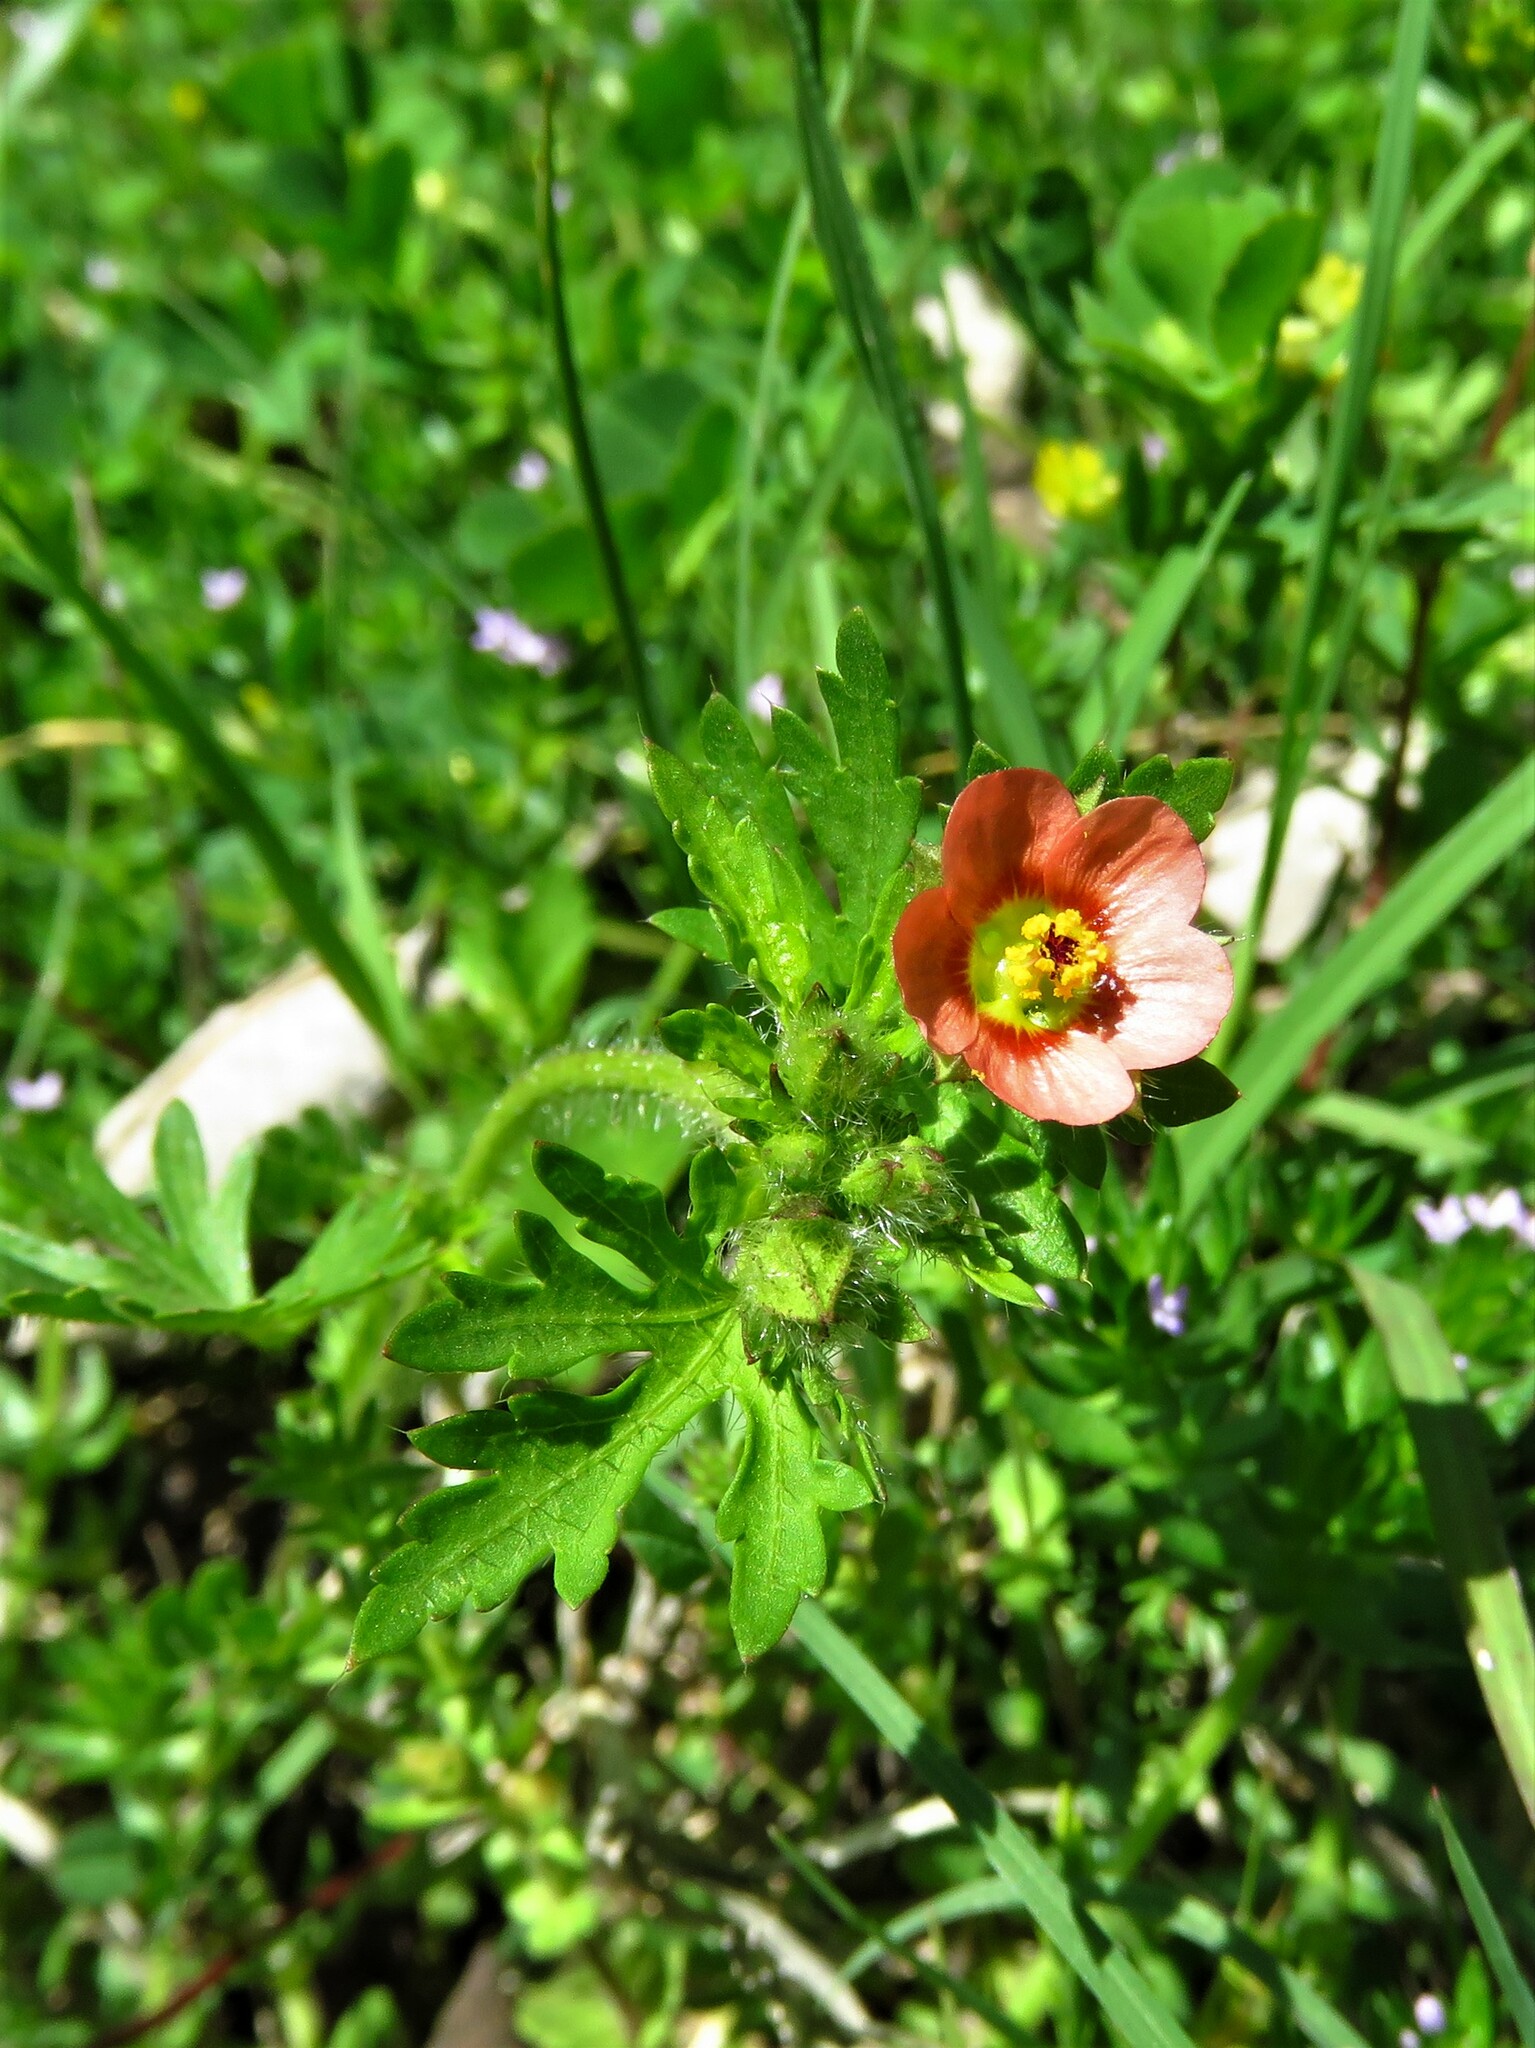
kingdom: Plantae
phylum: Tracheophyta
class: Magnoliopsida
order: Malvales
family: Malvaceae
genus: Modiola
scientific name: Modiola caroliniana
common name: Carolina bristlemallow
